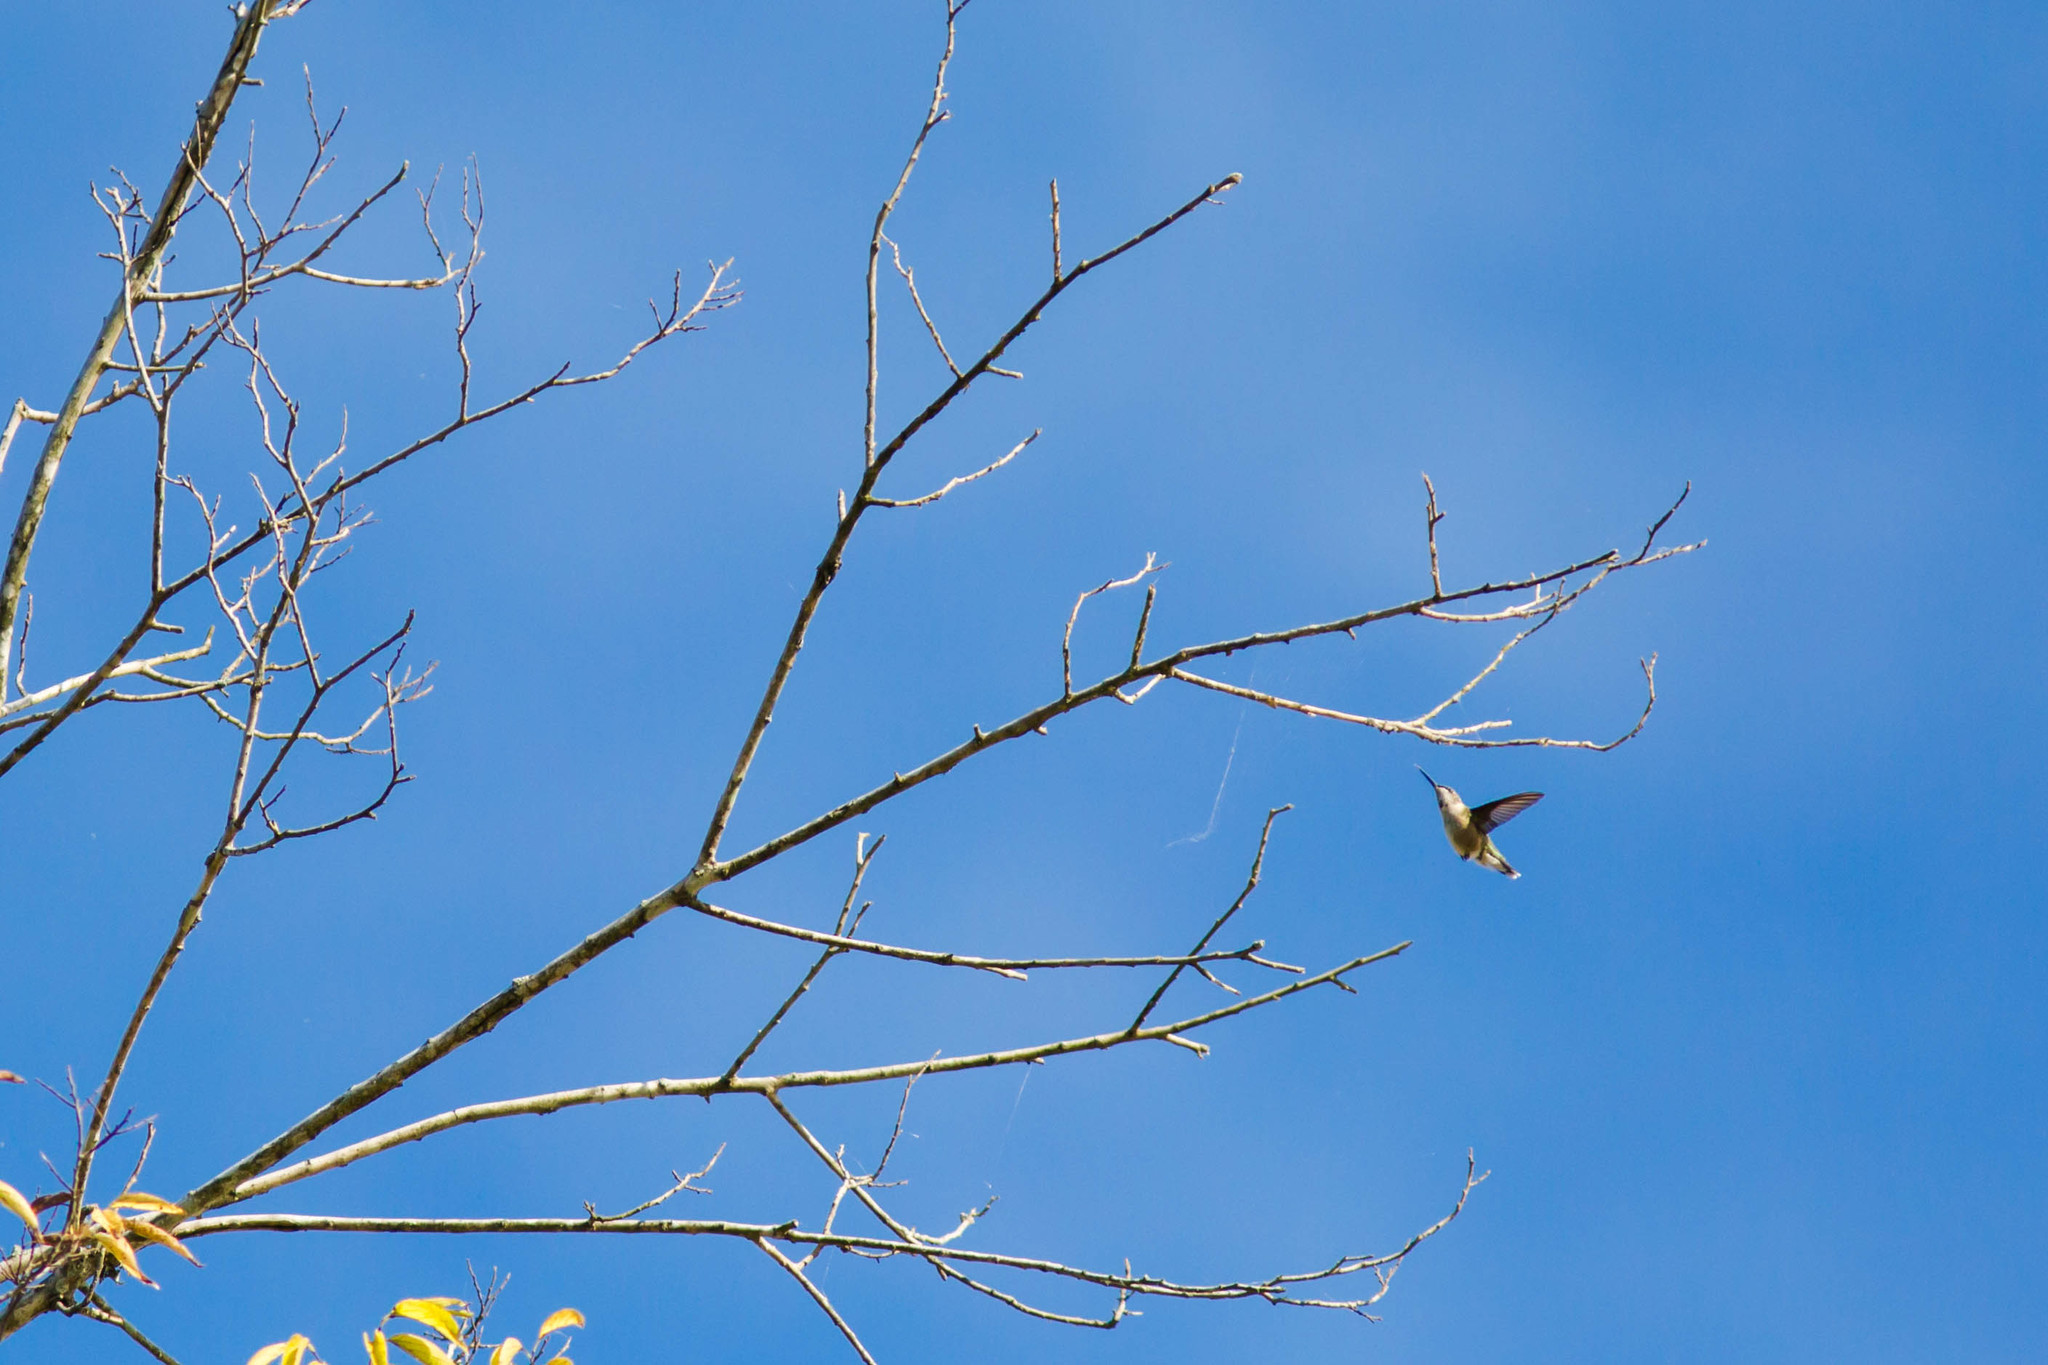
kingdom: Animalia
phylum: Chordata
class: Aves
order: Apodiformes
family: Trochilidae
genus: Archilochus
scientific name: Archilochus colubris
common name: Ruby-throated hummingbird
